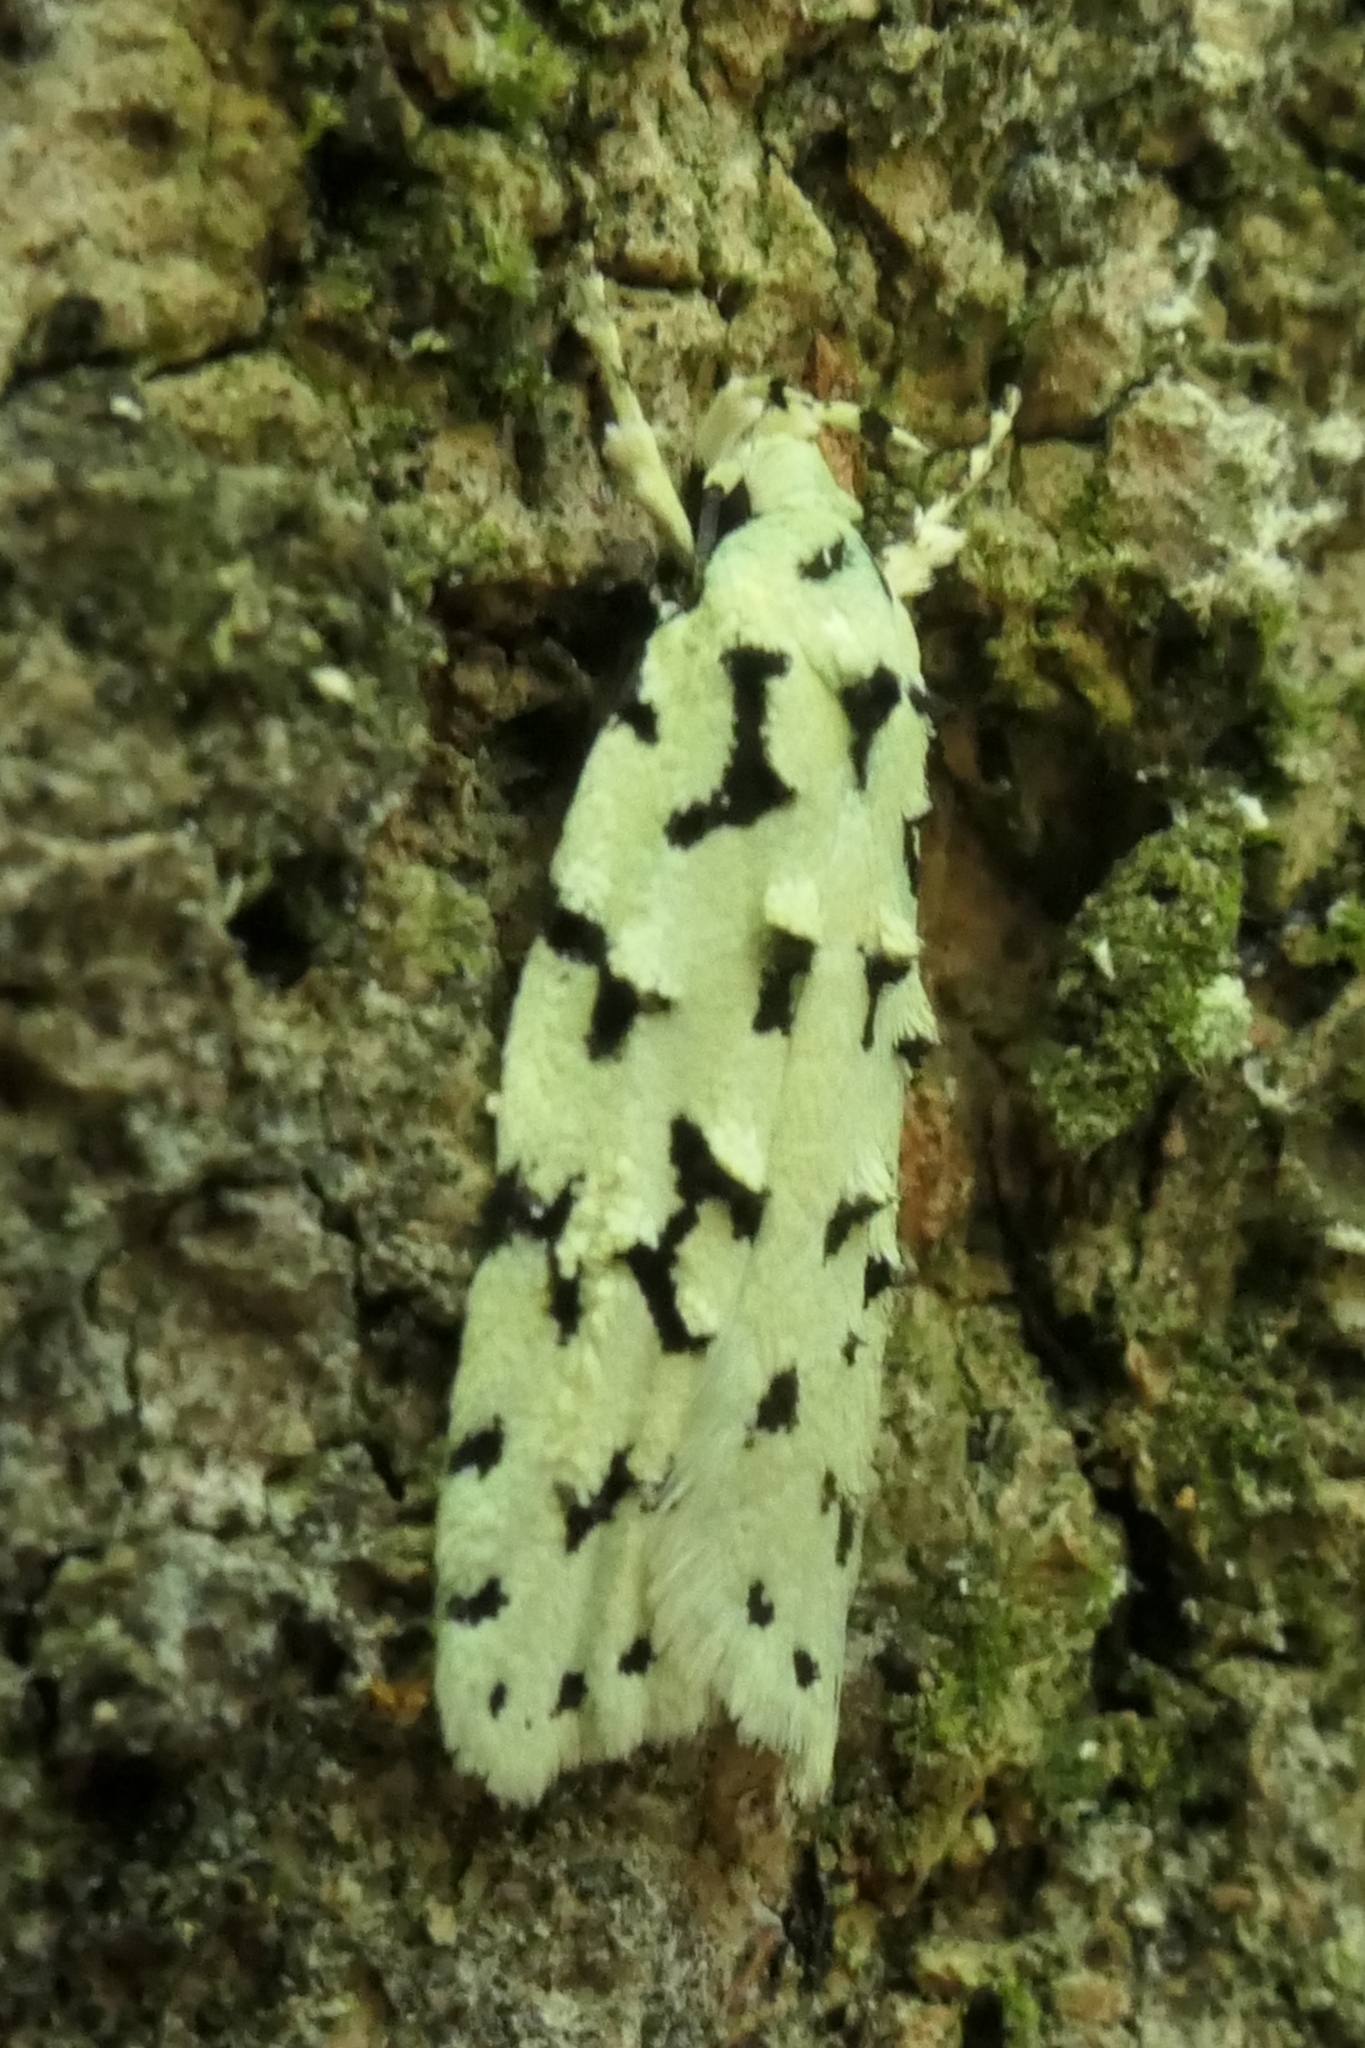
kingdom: Animalia
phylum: Arthropoda
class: Insecta
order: Lepidoptera
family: Oecophoridae
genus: Izatha
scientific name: Izatha huttoni
